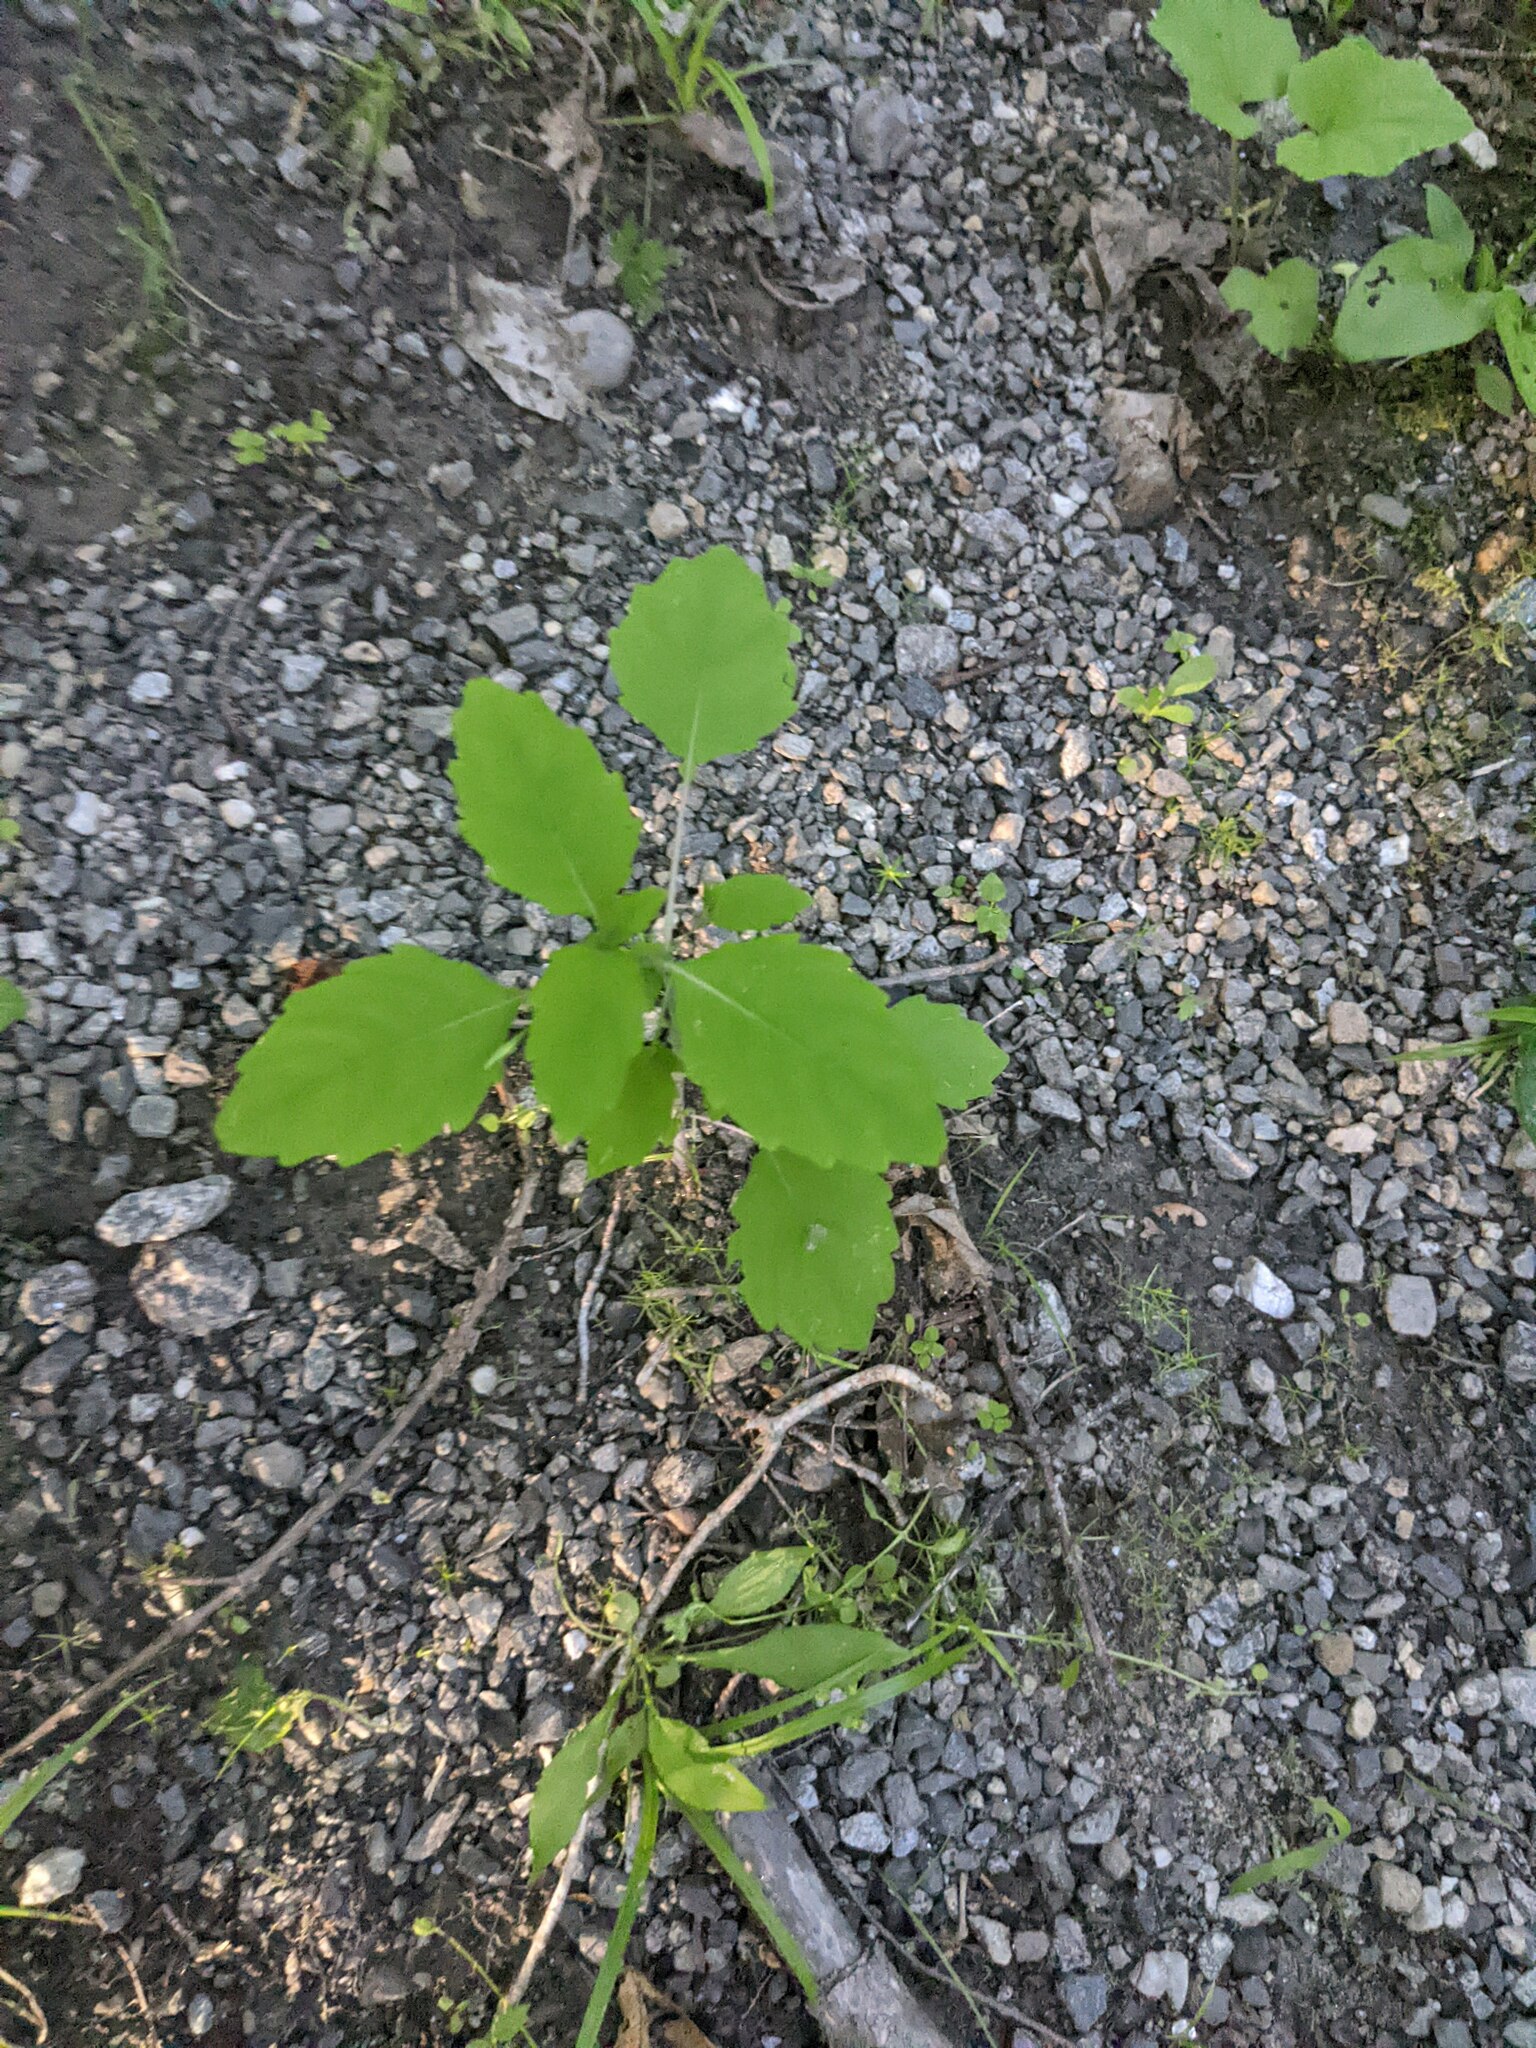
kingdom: Plantae
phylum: Tracheophyta
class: Magnoliopsida
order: Ericales
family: Balsaminaceae
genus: Impatiens
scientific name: Impatiens capensis
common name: Orange balsam
